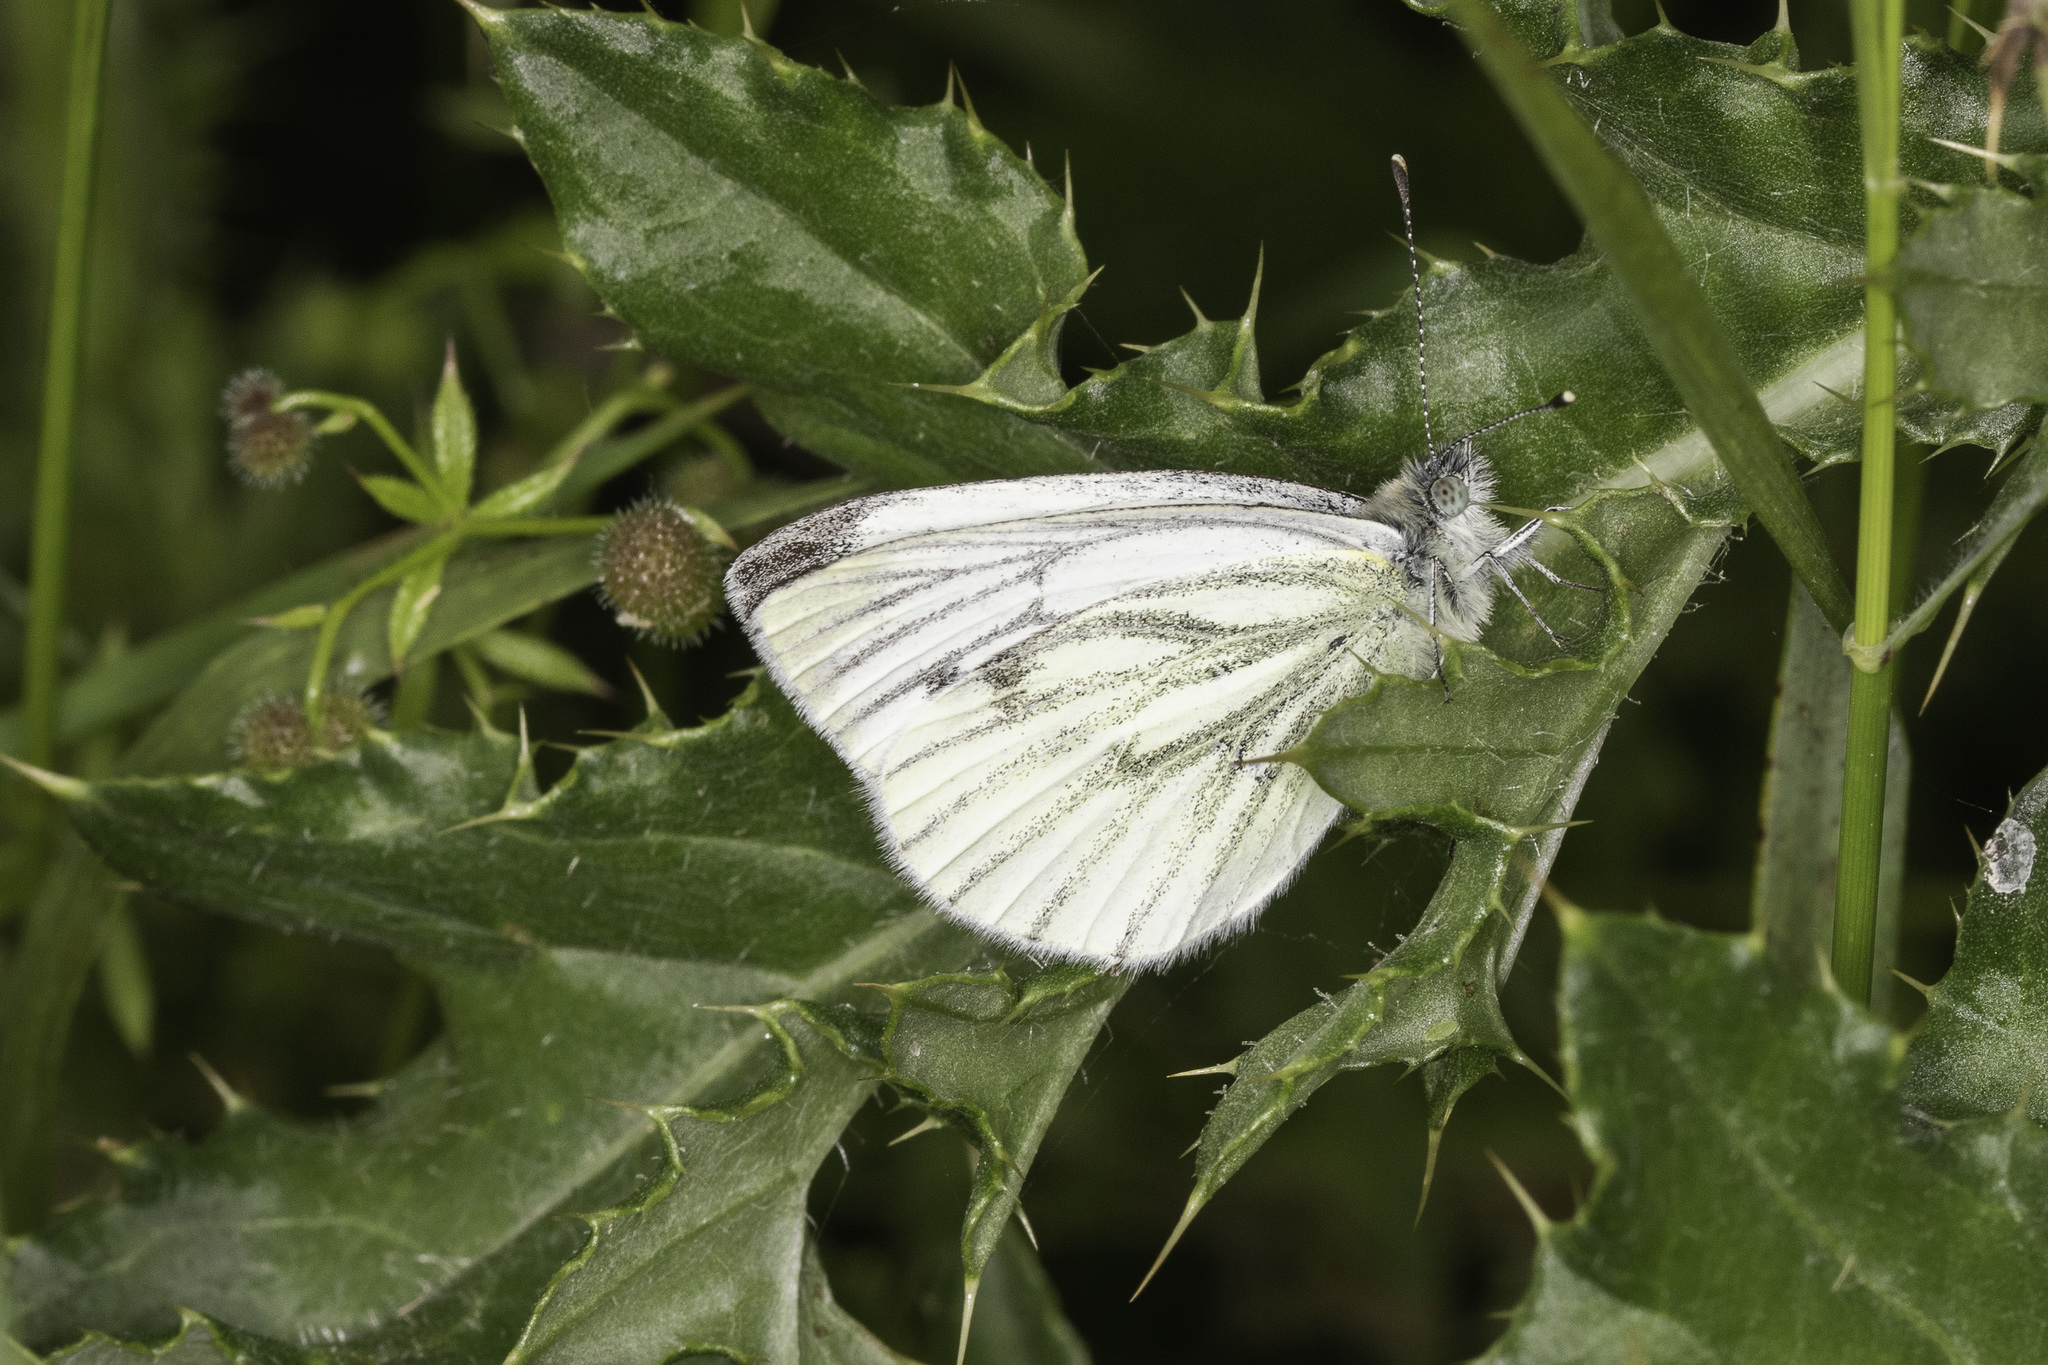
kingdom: Animalia
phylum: Arthropoda
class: Insecta
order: Lepidoptera
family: Pieridae
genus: Pieris
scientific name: Pieris napi
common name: Green-veined white
